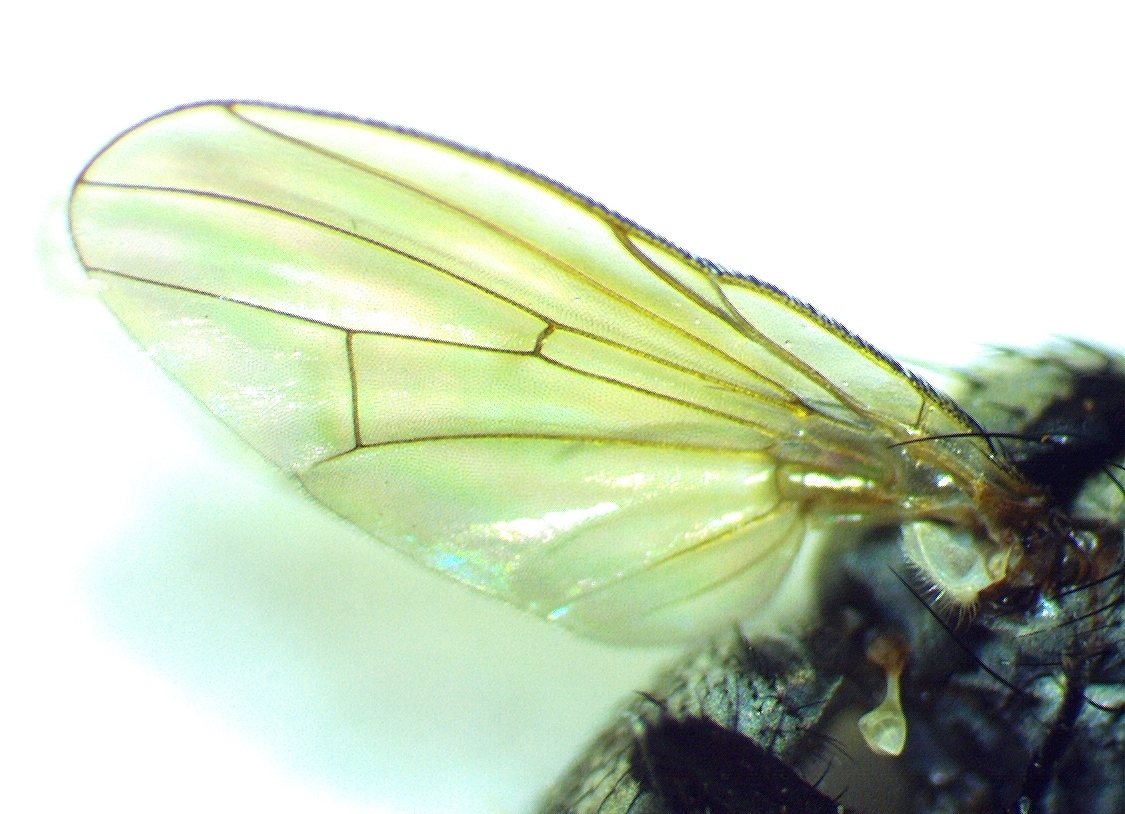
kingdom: Animalia
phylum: Arthropoda
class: Insecta
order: Diptera
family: Anthomyiidae
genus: Anthomyia
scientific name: Anthomyia procellaris
